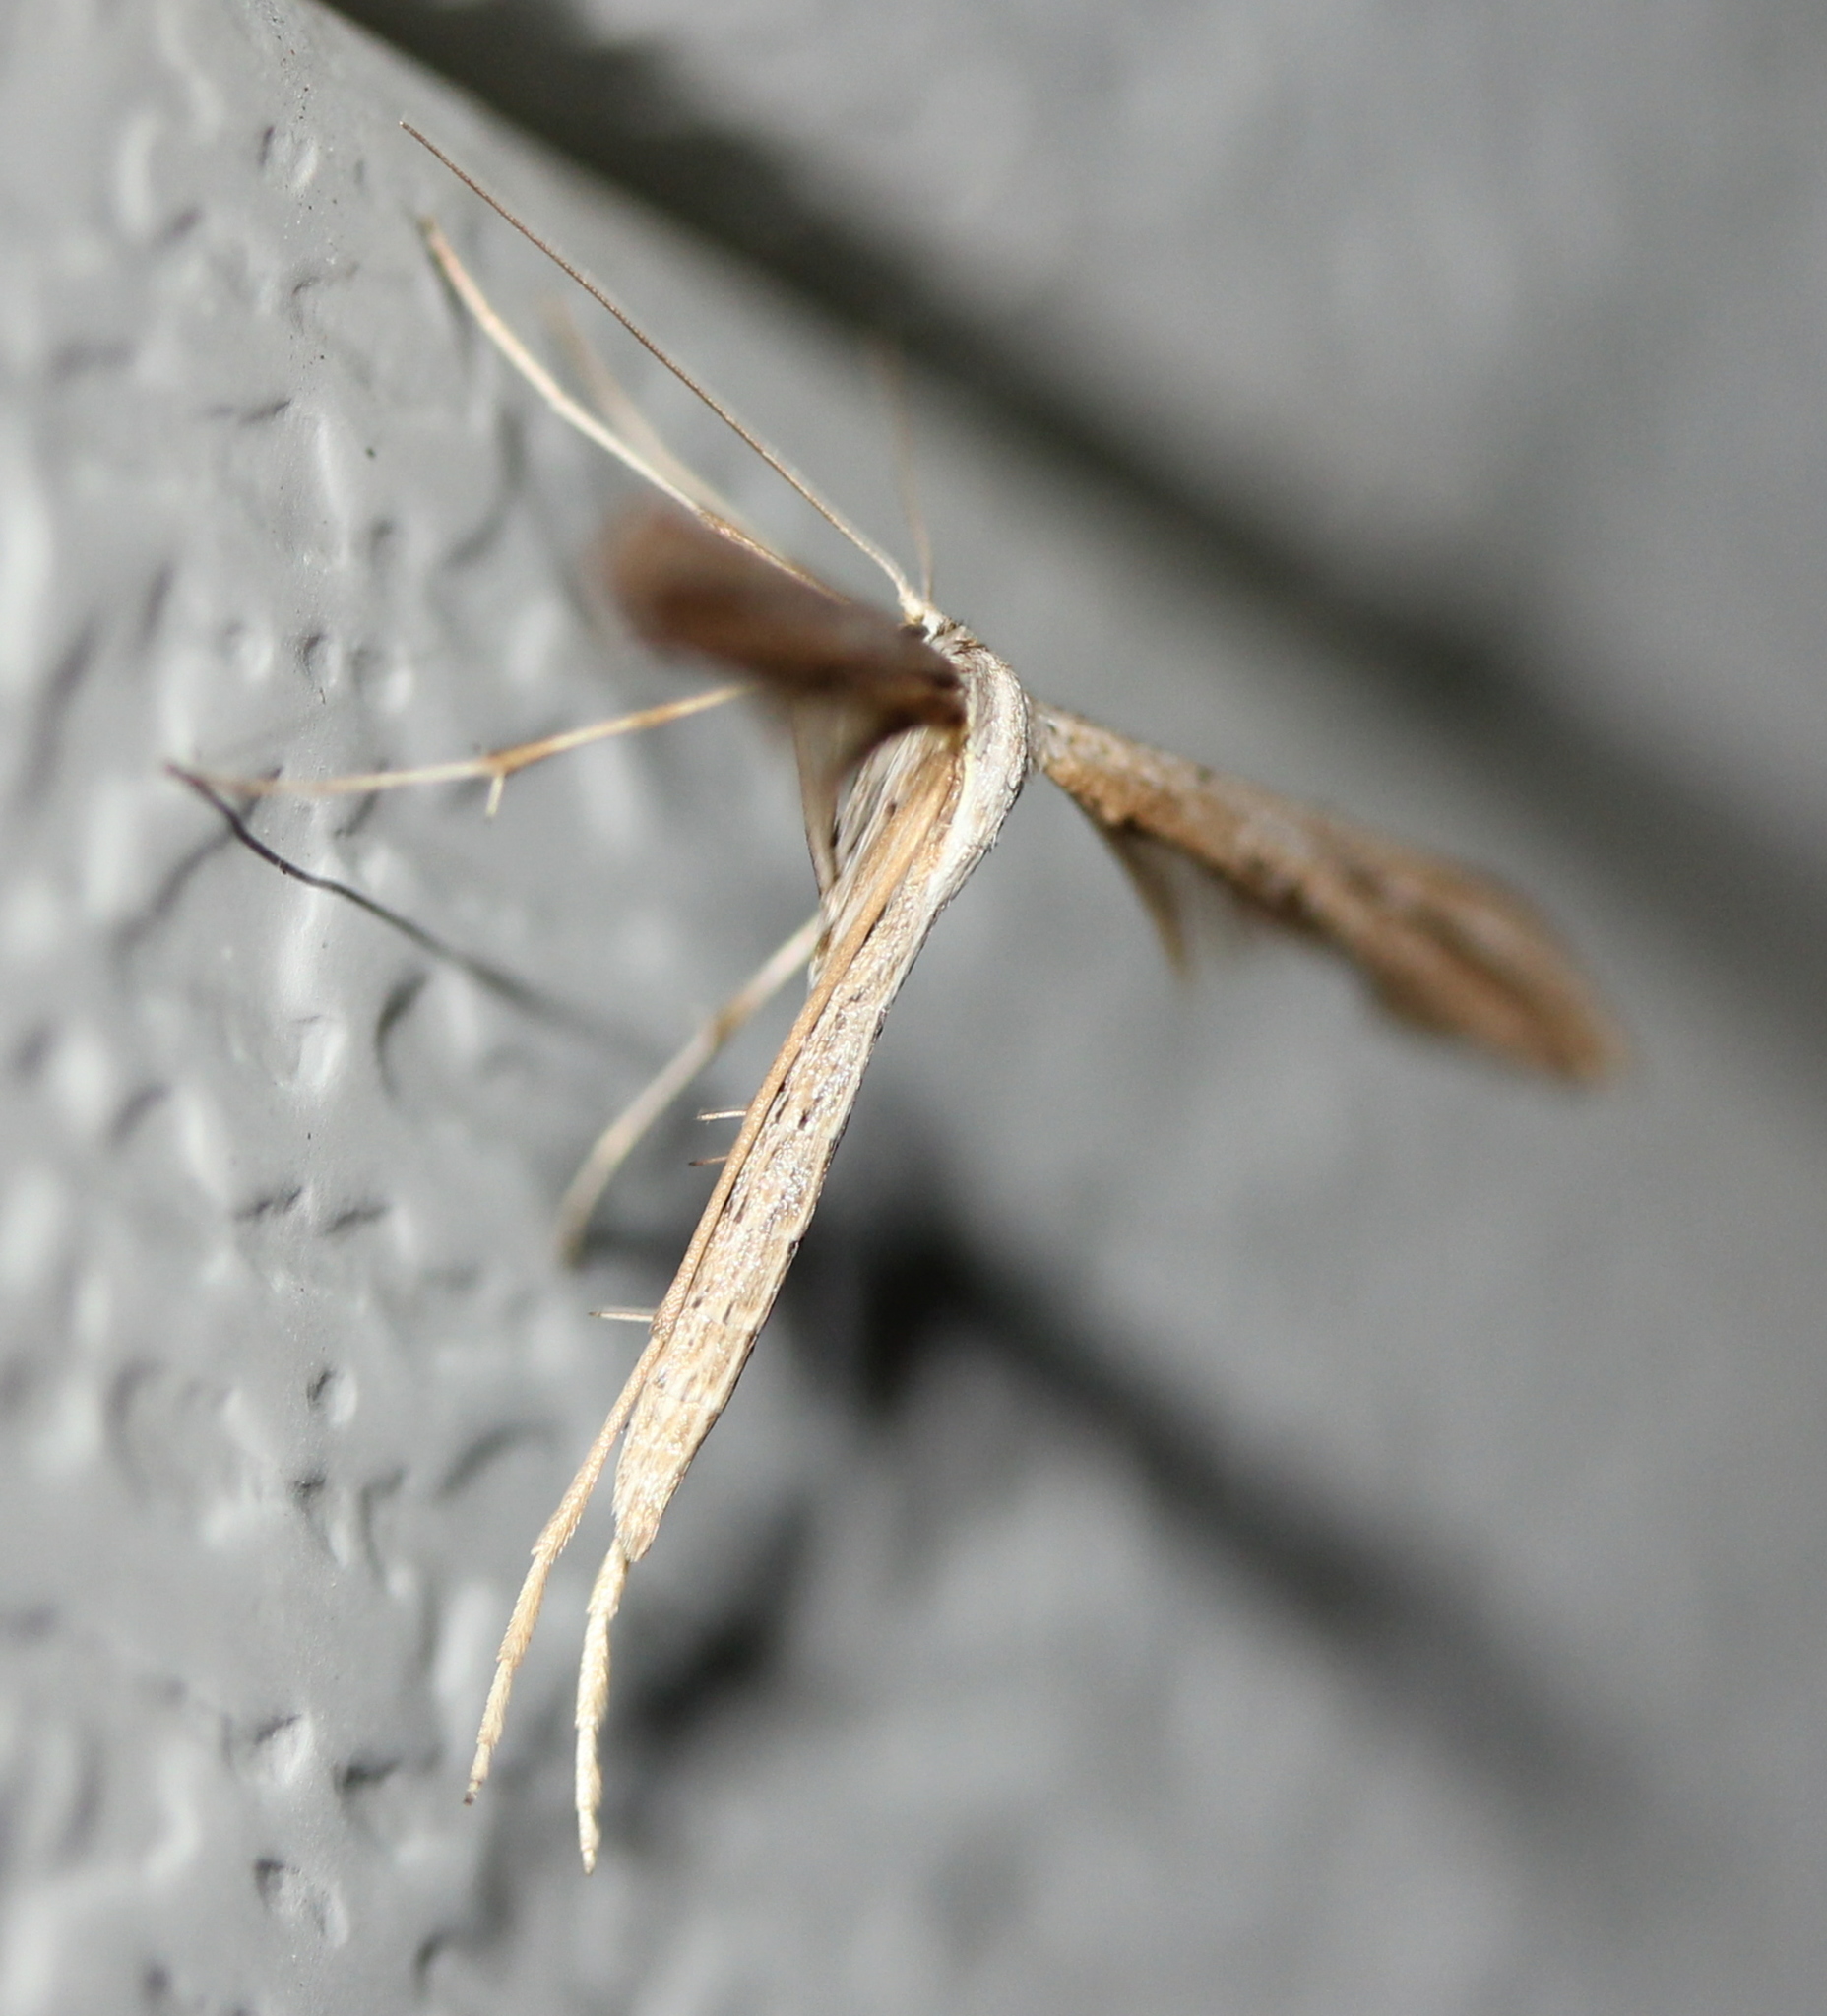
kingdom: Animalia
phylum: Arthropoda
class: Insecta
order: Lepidoptera
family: Pterophoridae
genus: Emmelina
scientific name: Emmelina monodactyla
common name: Common plume
